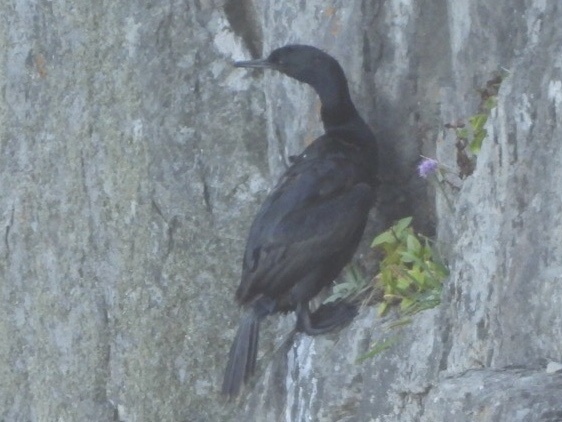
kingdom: Animalia
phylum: Chordata
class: Aves
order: Suliformes
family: Phalacrocoracidae
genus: Phalacrocorax
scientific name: Phalacrocorax pelagicus
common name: Pelagic cormorant
